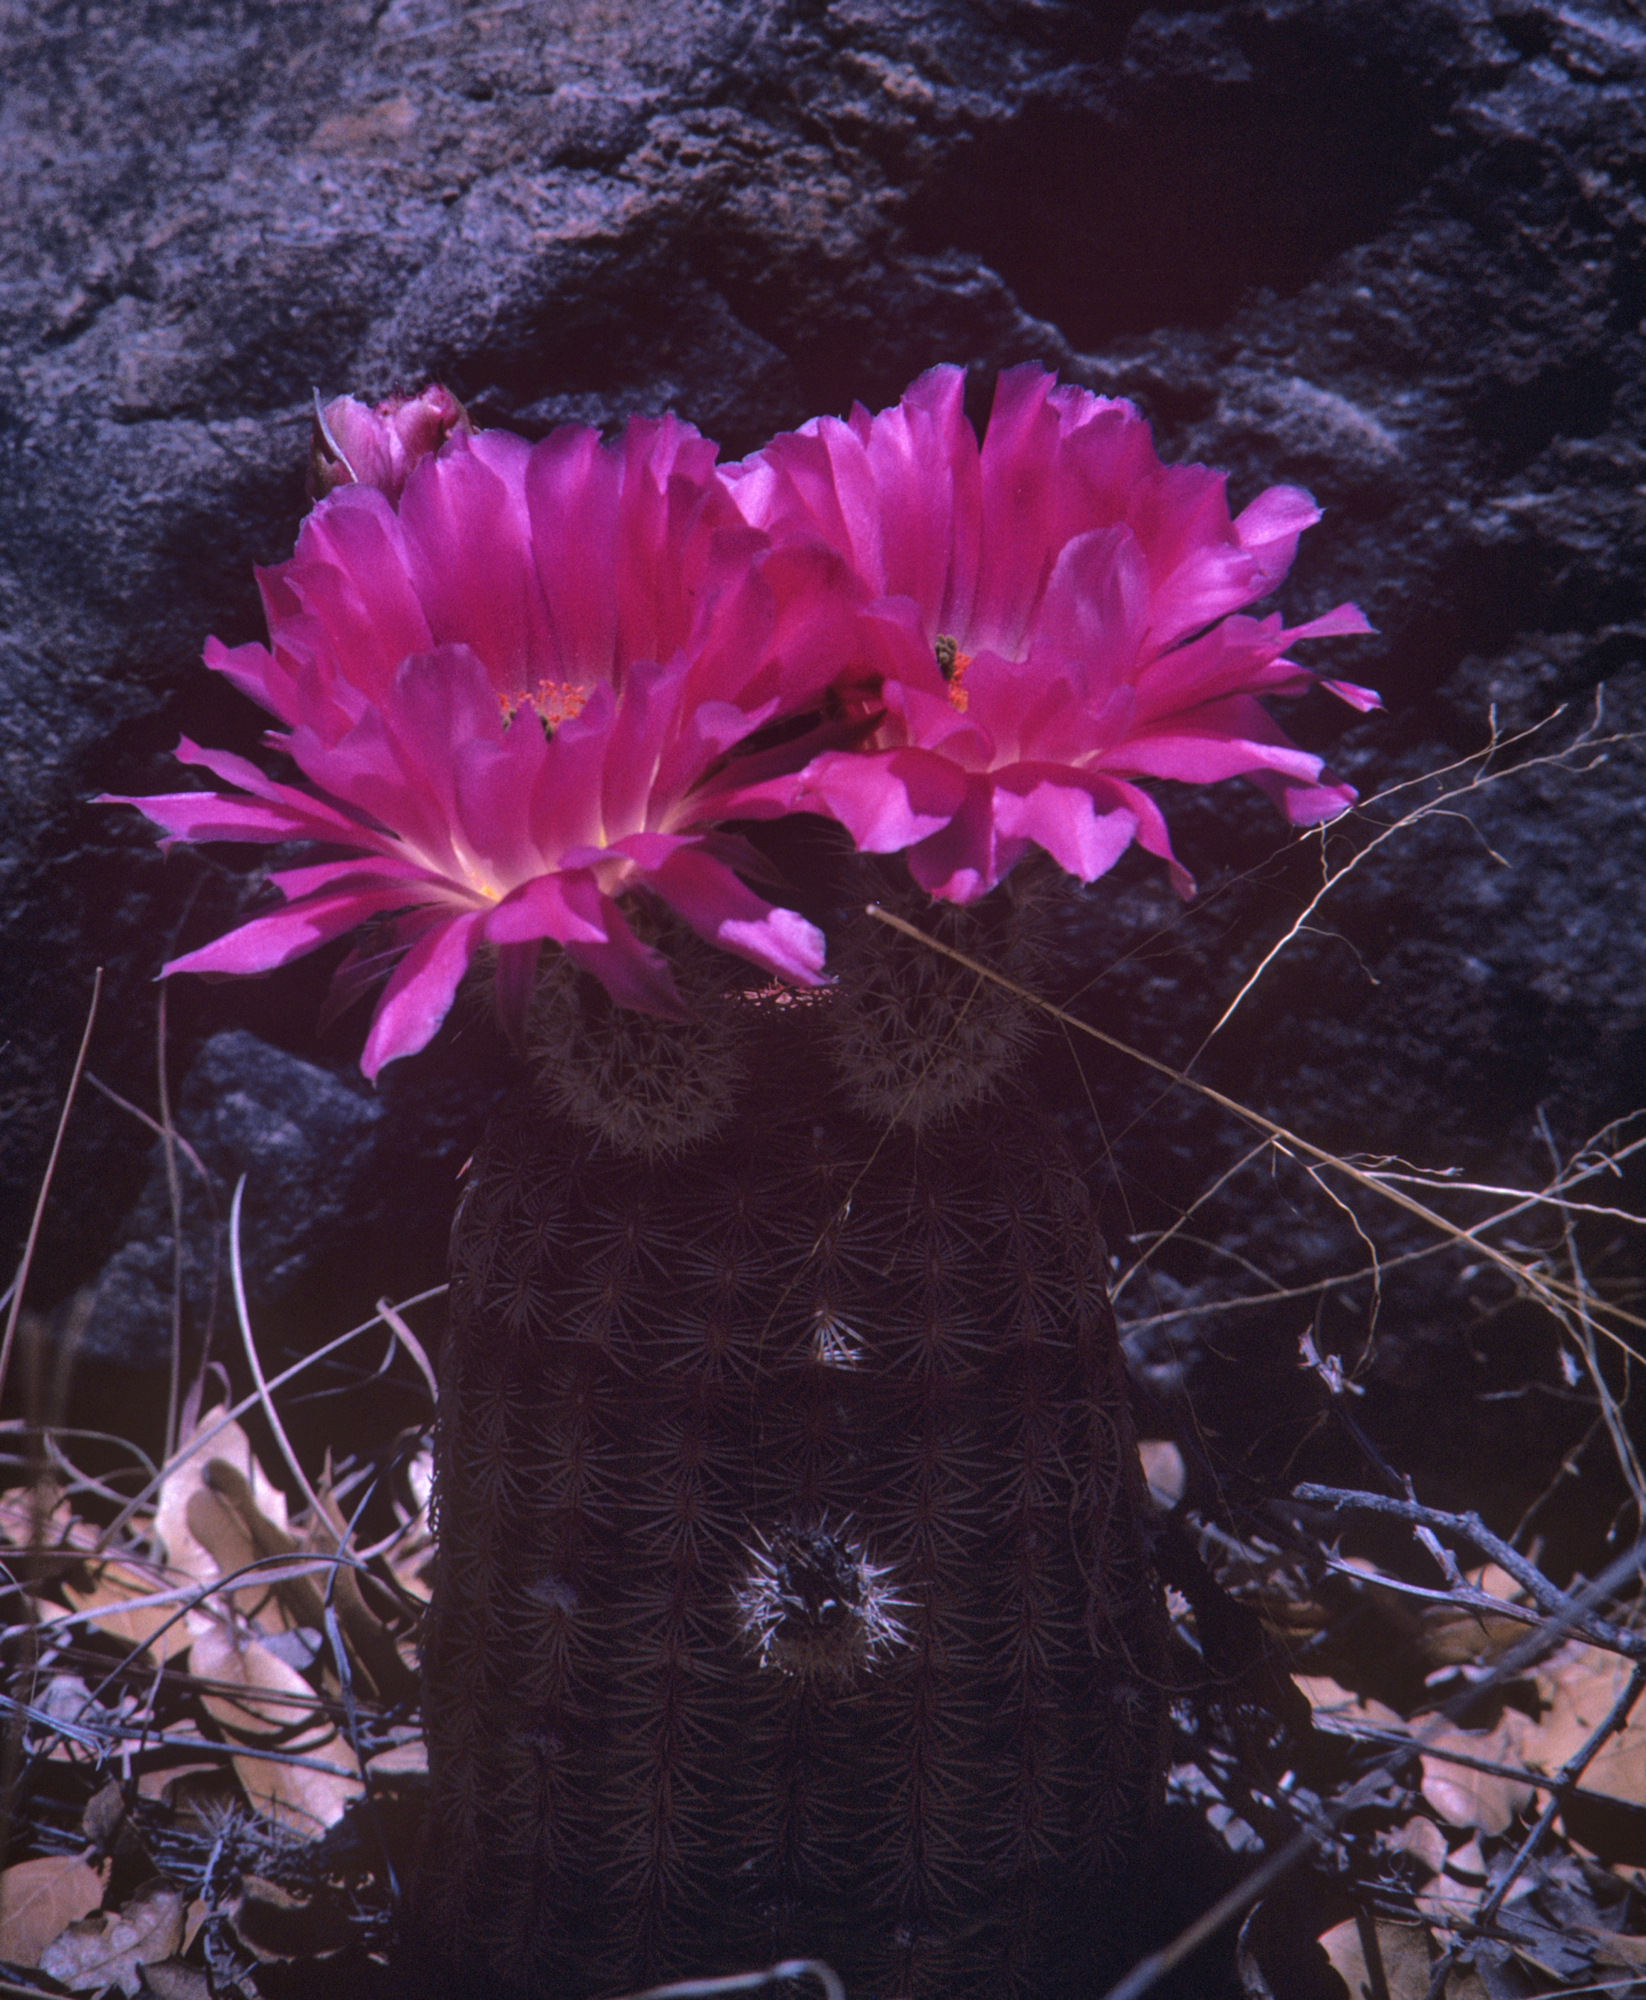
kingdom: Plantae
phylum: Tracheophyta
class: Magnoliopsida
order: Caryophyllales
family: Cactaceae
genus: Echinocereus
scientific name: Echinocereus rigidissimus
